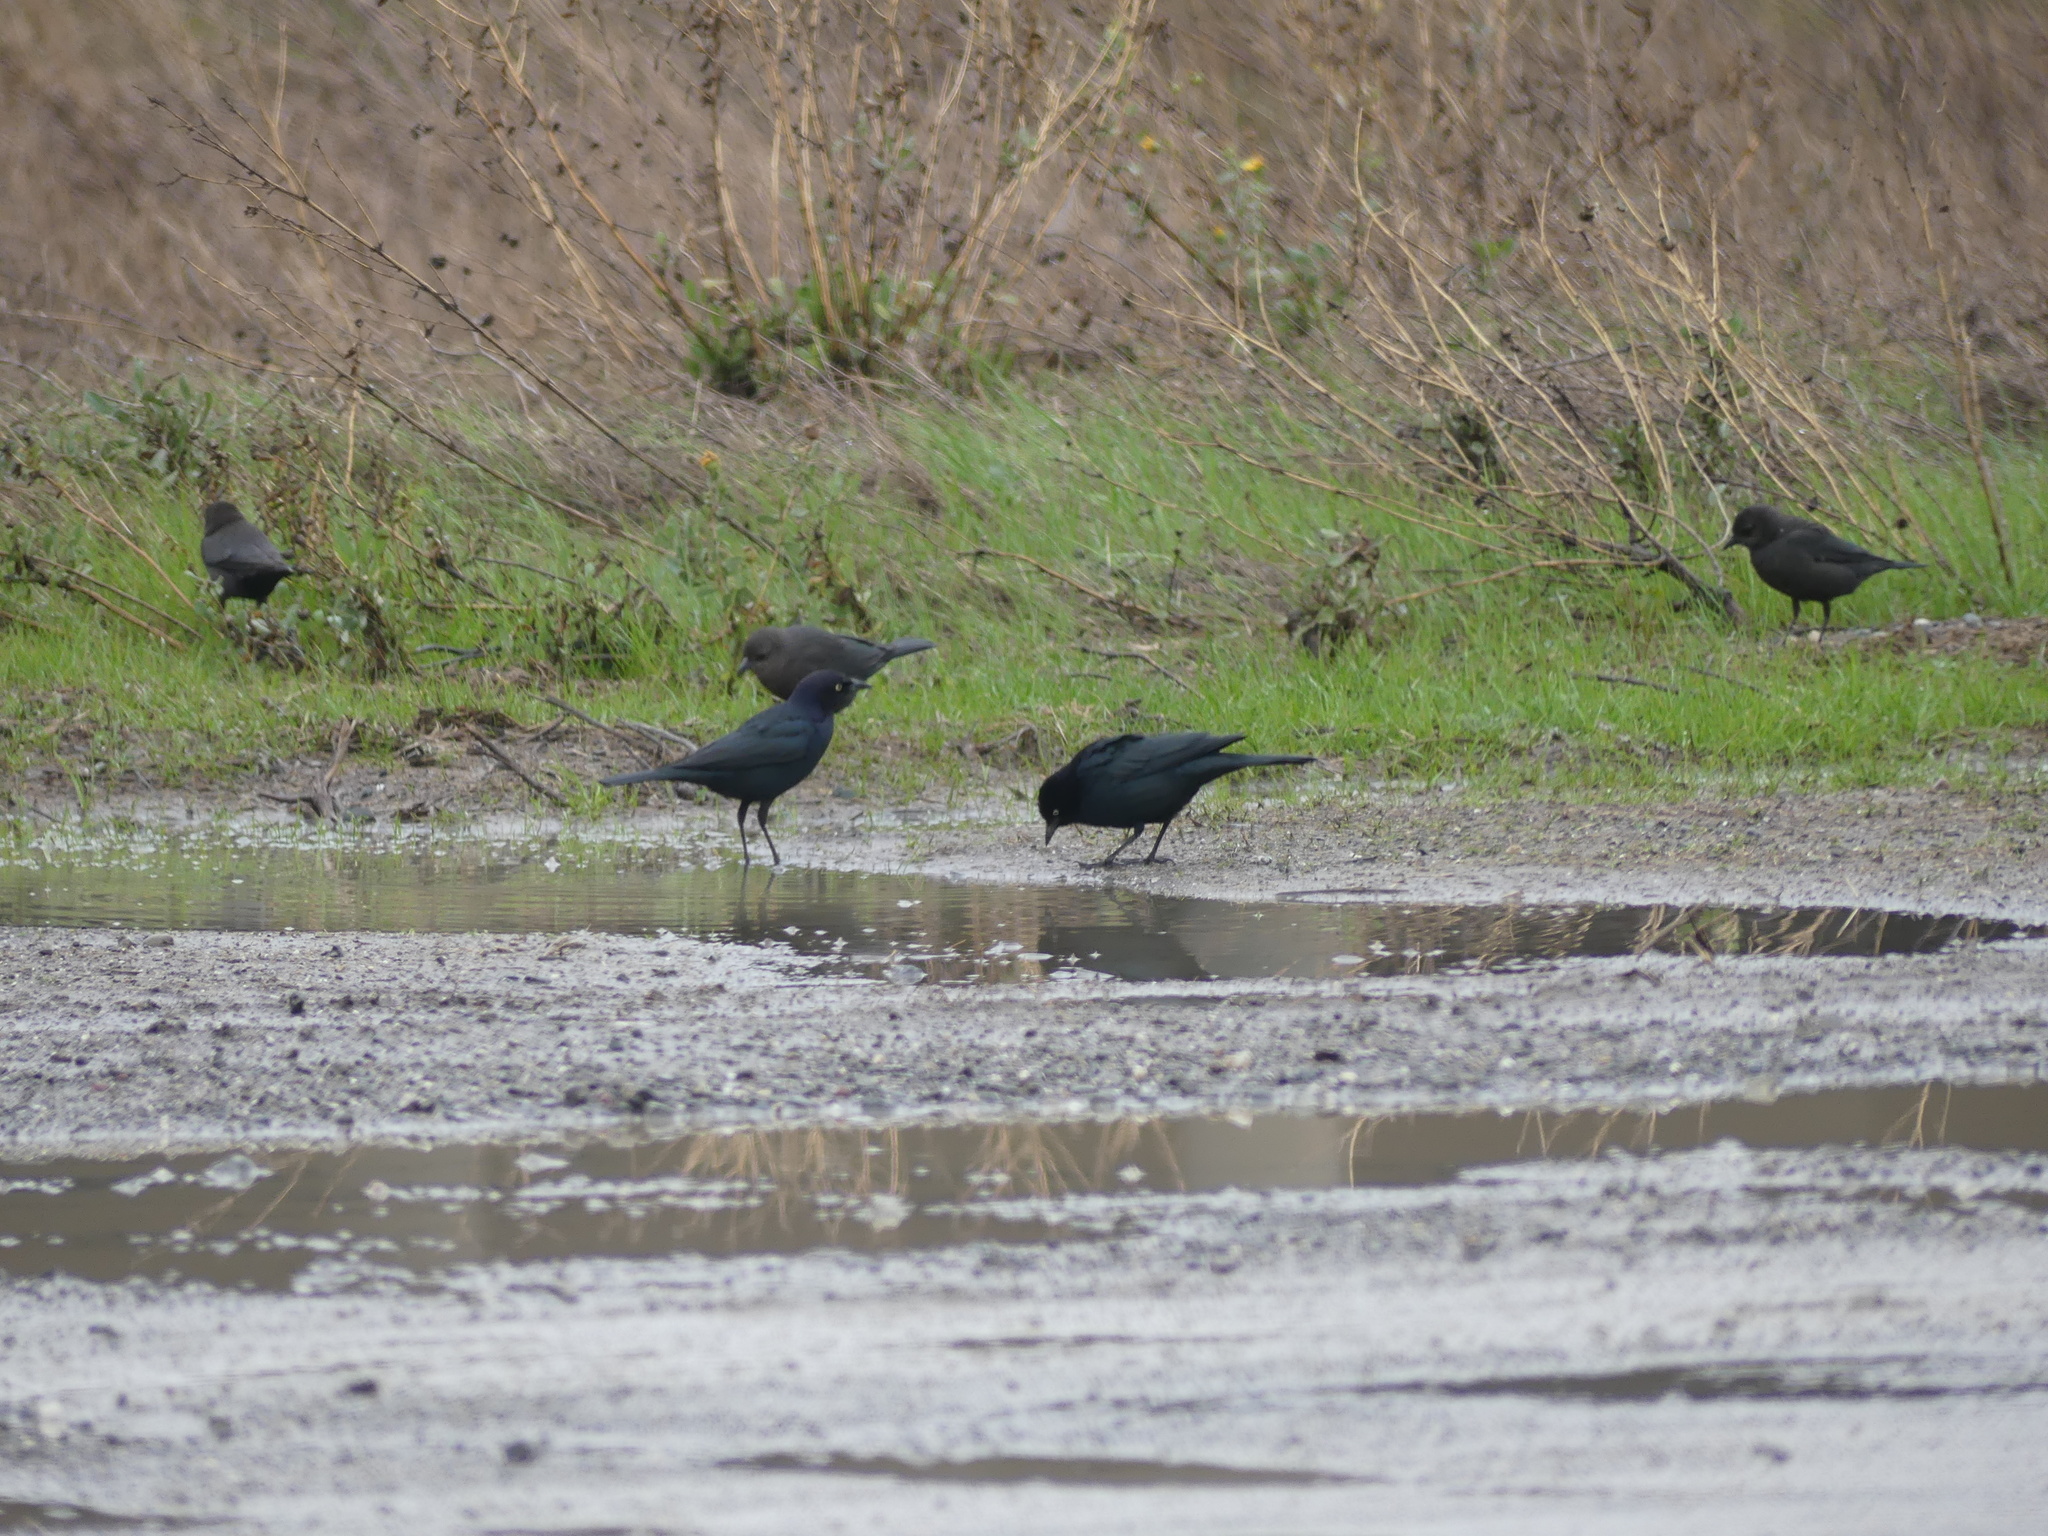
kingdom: Animalia
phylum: Chordata
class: Aves
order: Passeriformes
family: Icteridae
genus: Euphagus
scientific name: Euphagus cyanocephalus
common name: Brewer's blackbird
